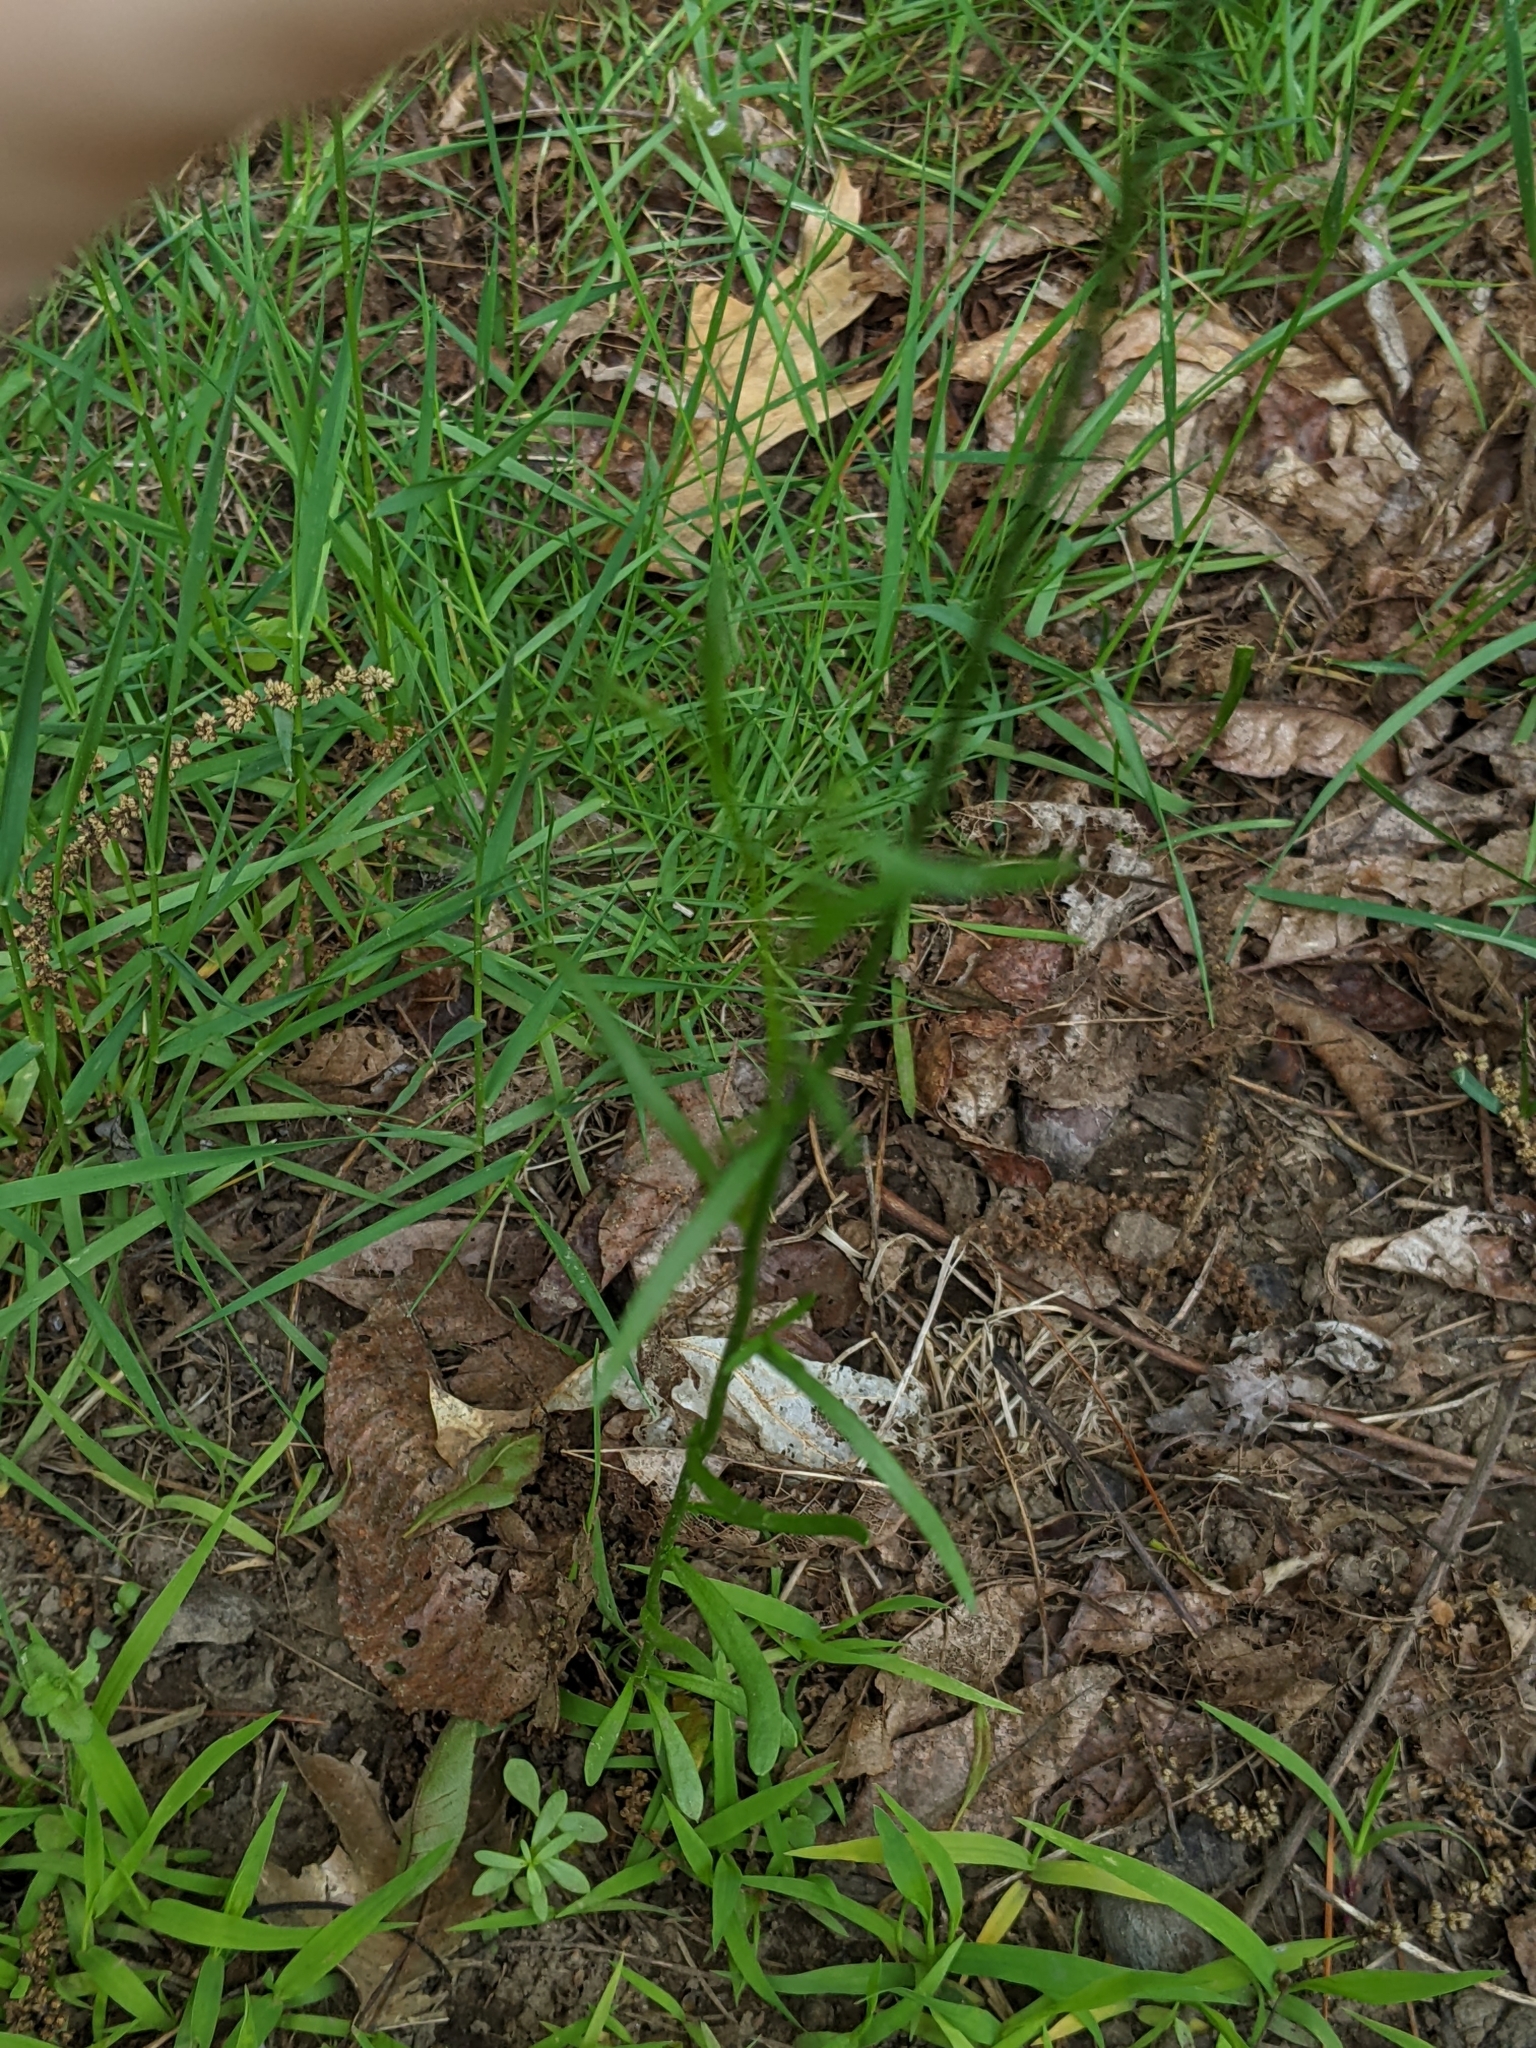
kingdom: Plantae
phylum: Tracheophyta
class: Magnoliopsida
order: Lamiales
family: Plantaginaceae
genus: Nuttallanthus
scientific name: Nuttallanthus canadensis
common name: Blue toadflax
